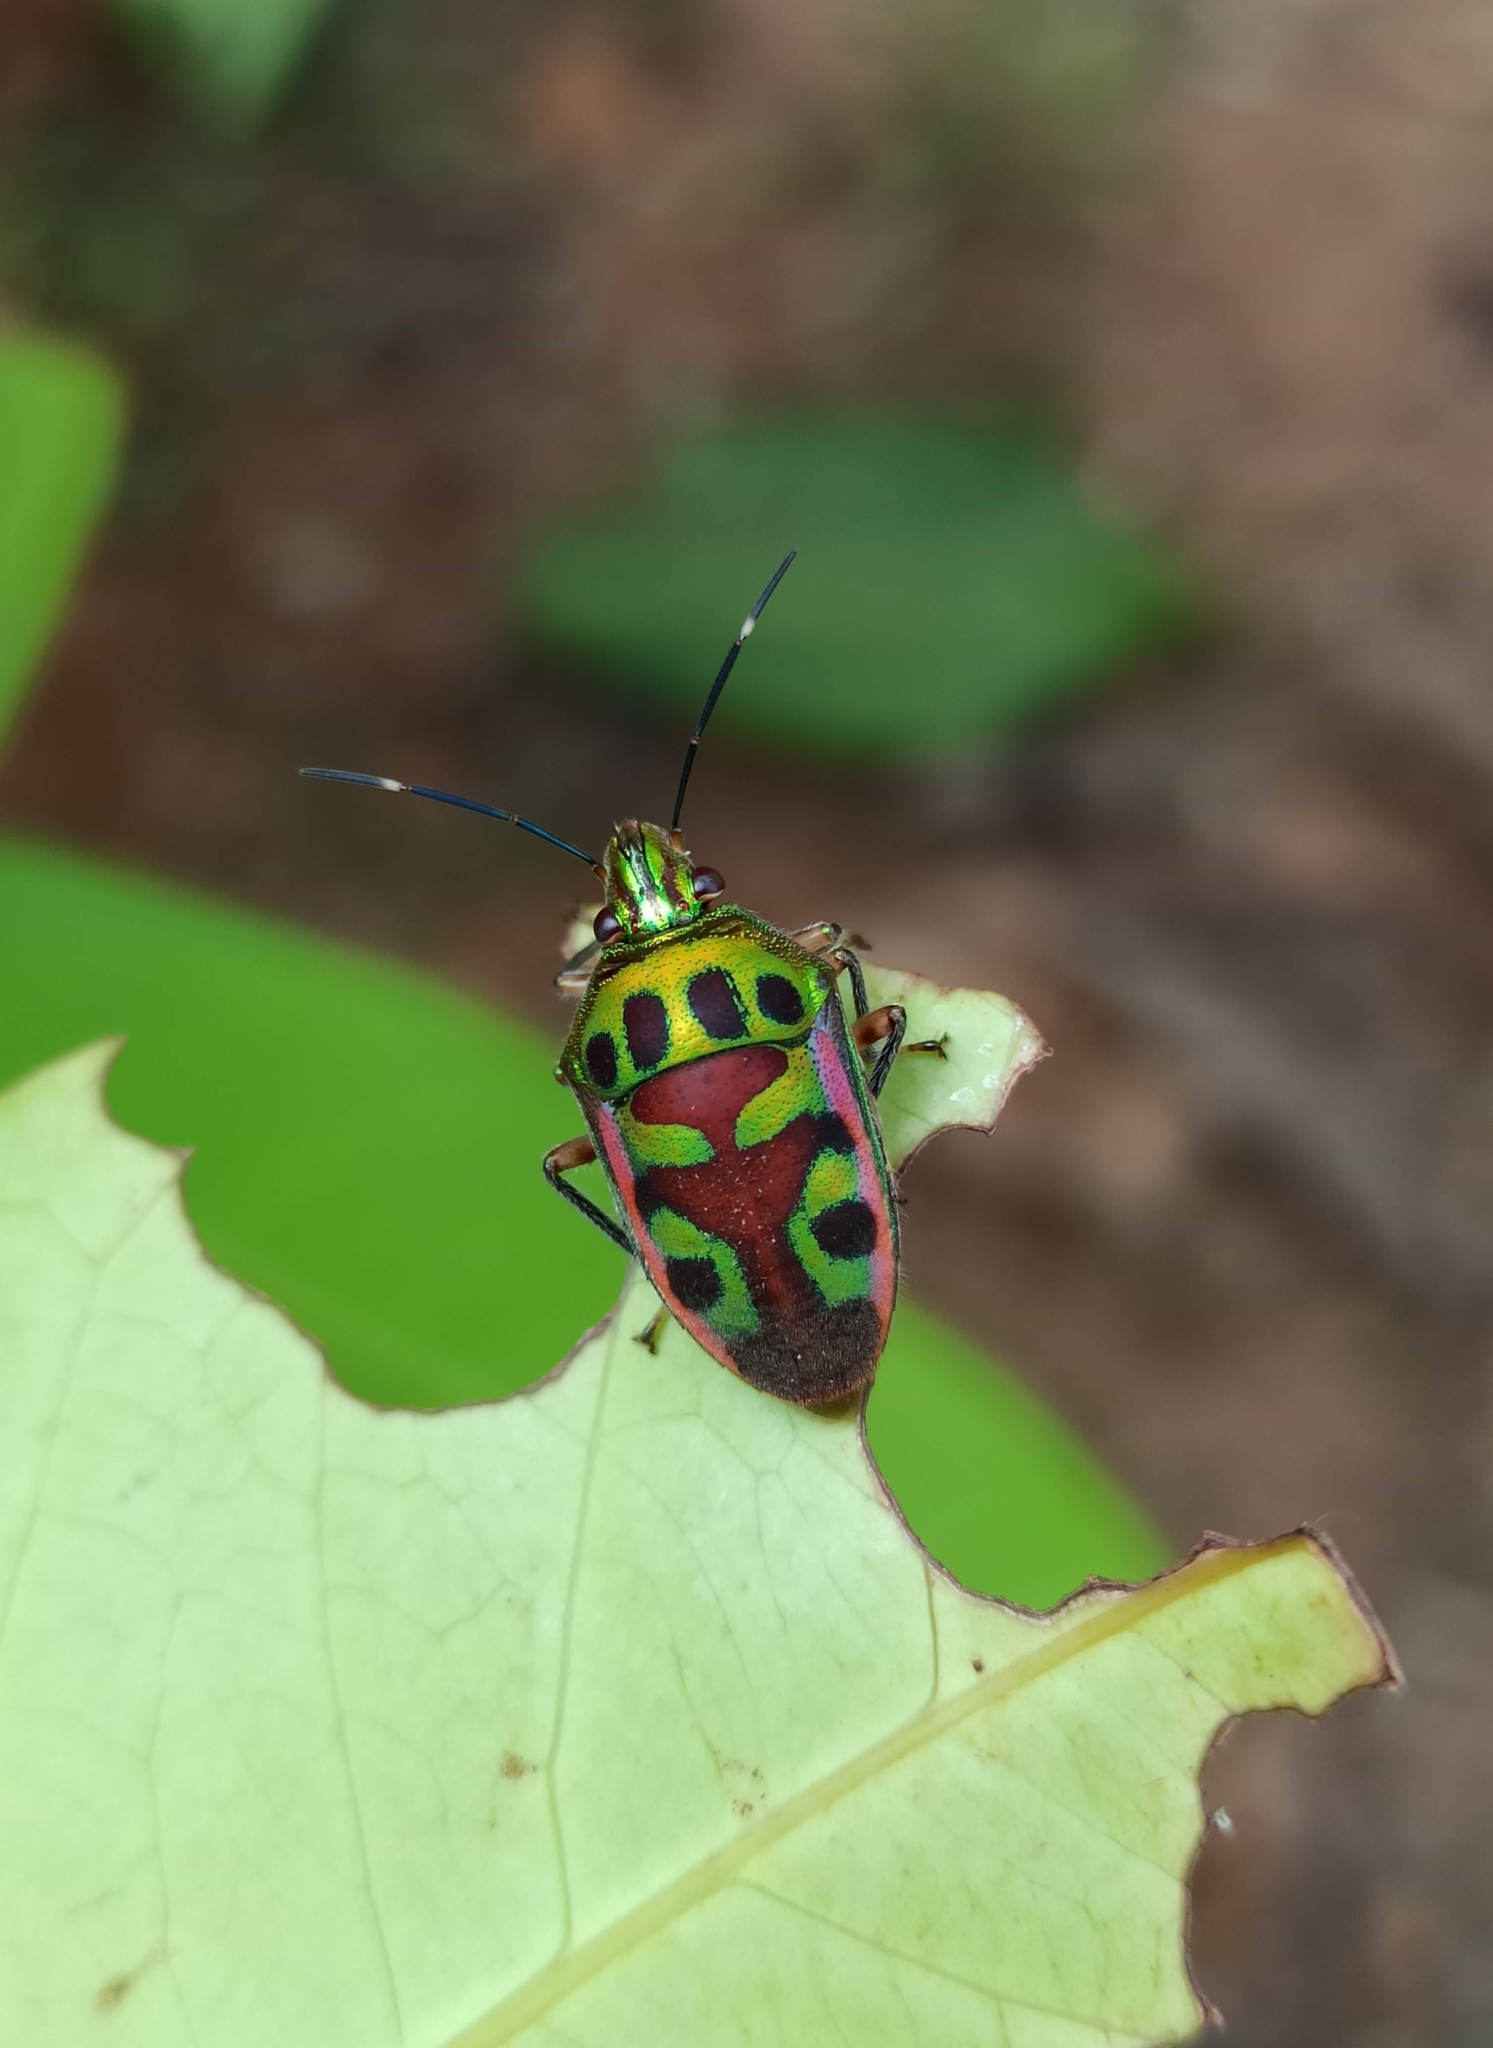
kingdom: Animalia
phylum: Arthropoda
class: Insecta
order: Hemiptera
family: Scutelleridae
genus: Tetrarthria
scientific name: Tetrarthria variegata
